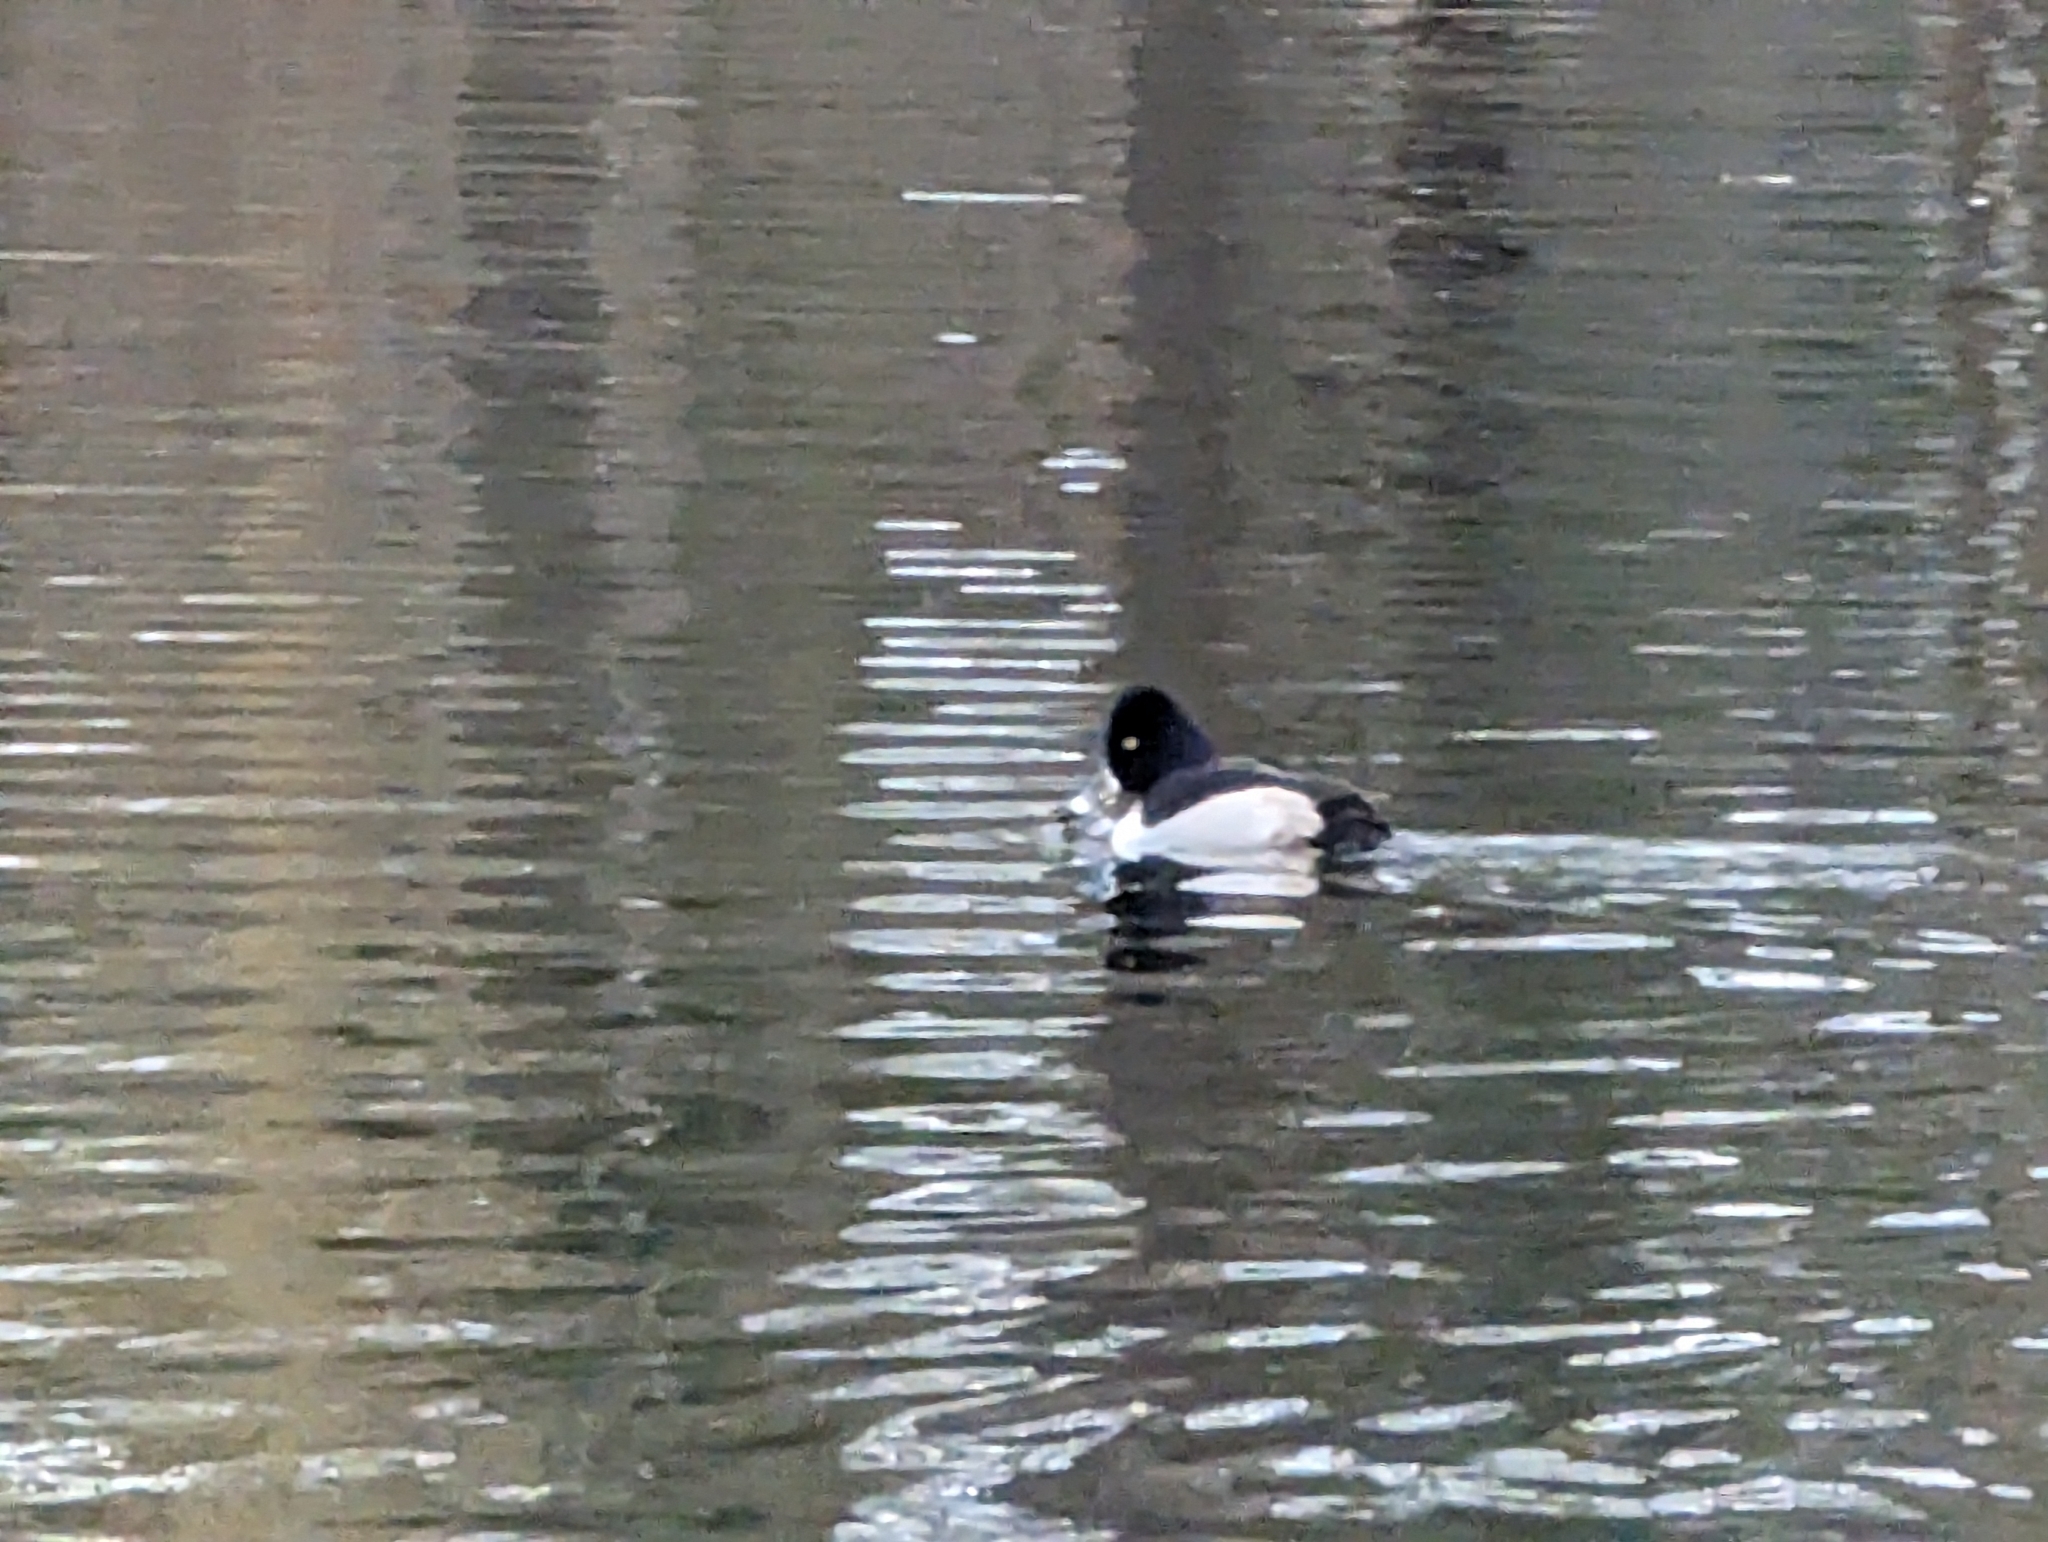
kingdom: Animalia
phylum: Chordata
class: Aves
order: Anseriformes
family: Anatidae
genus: Aythya
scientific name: Aythya collaris
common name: Ring-necked duck
